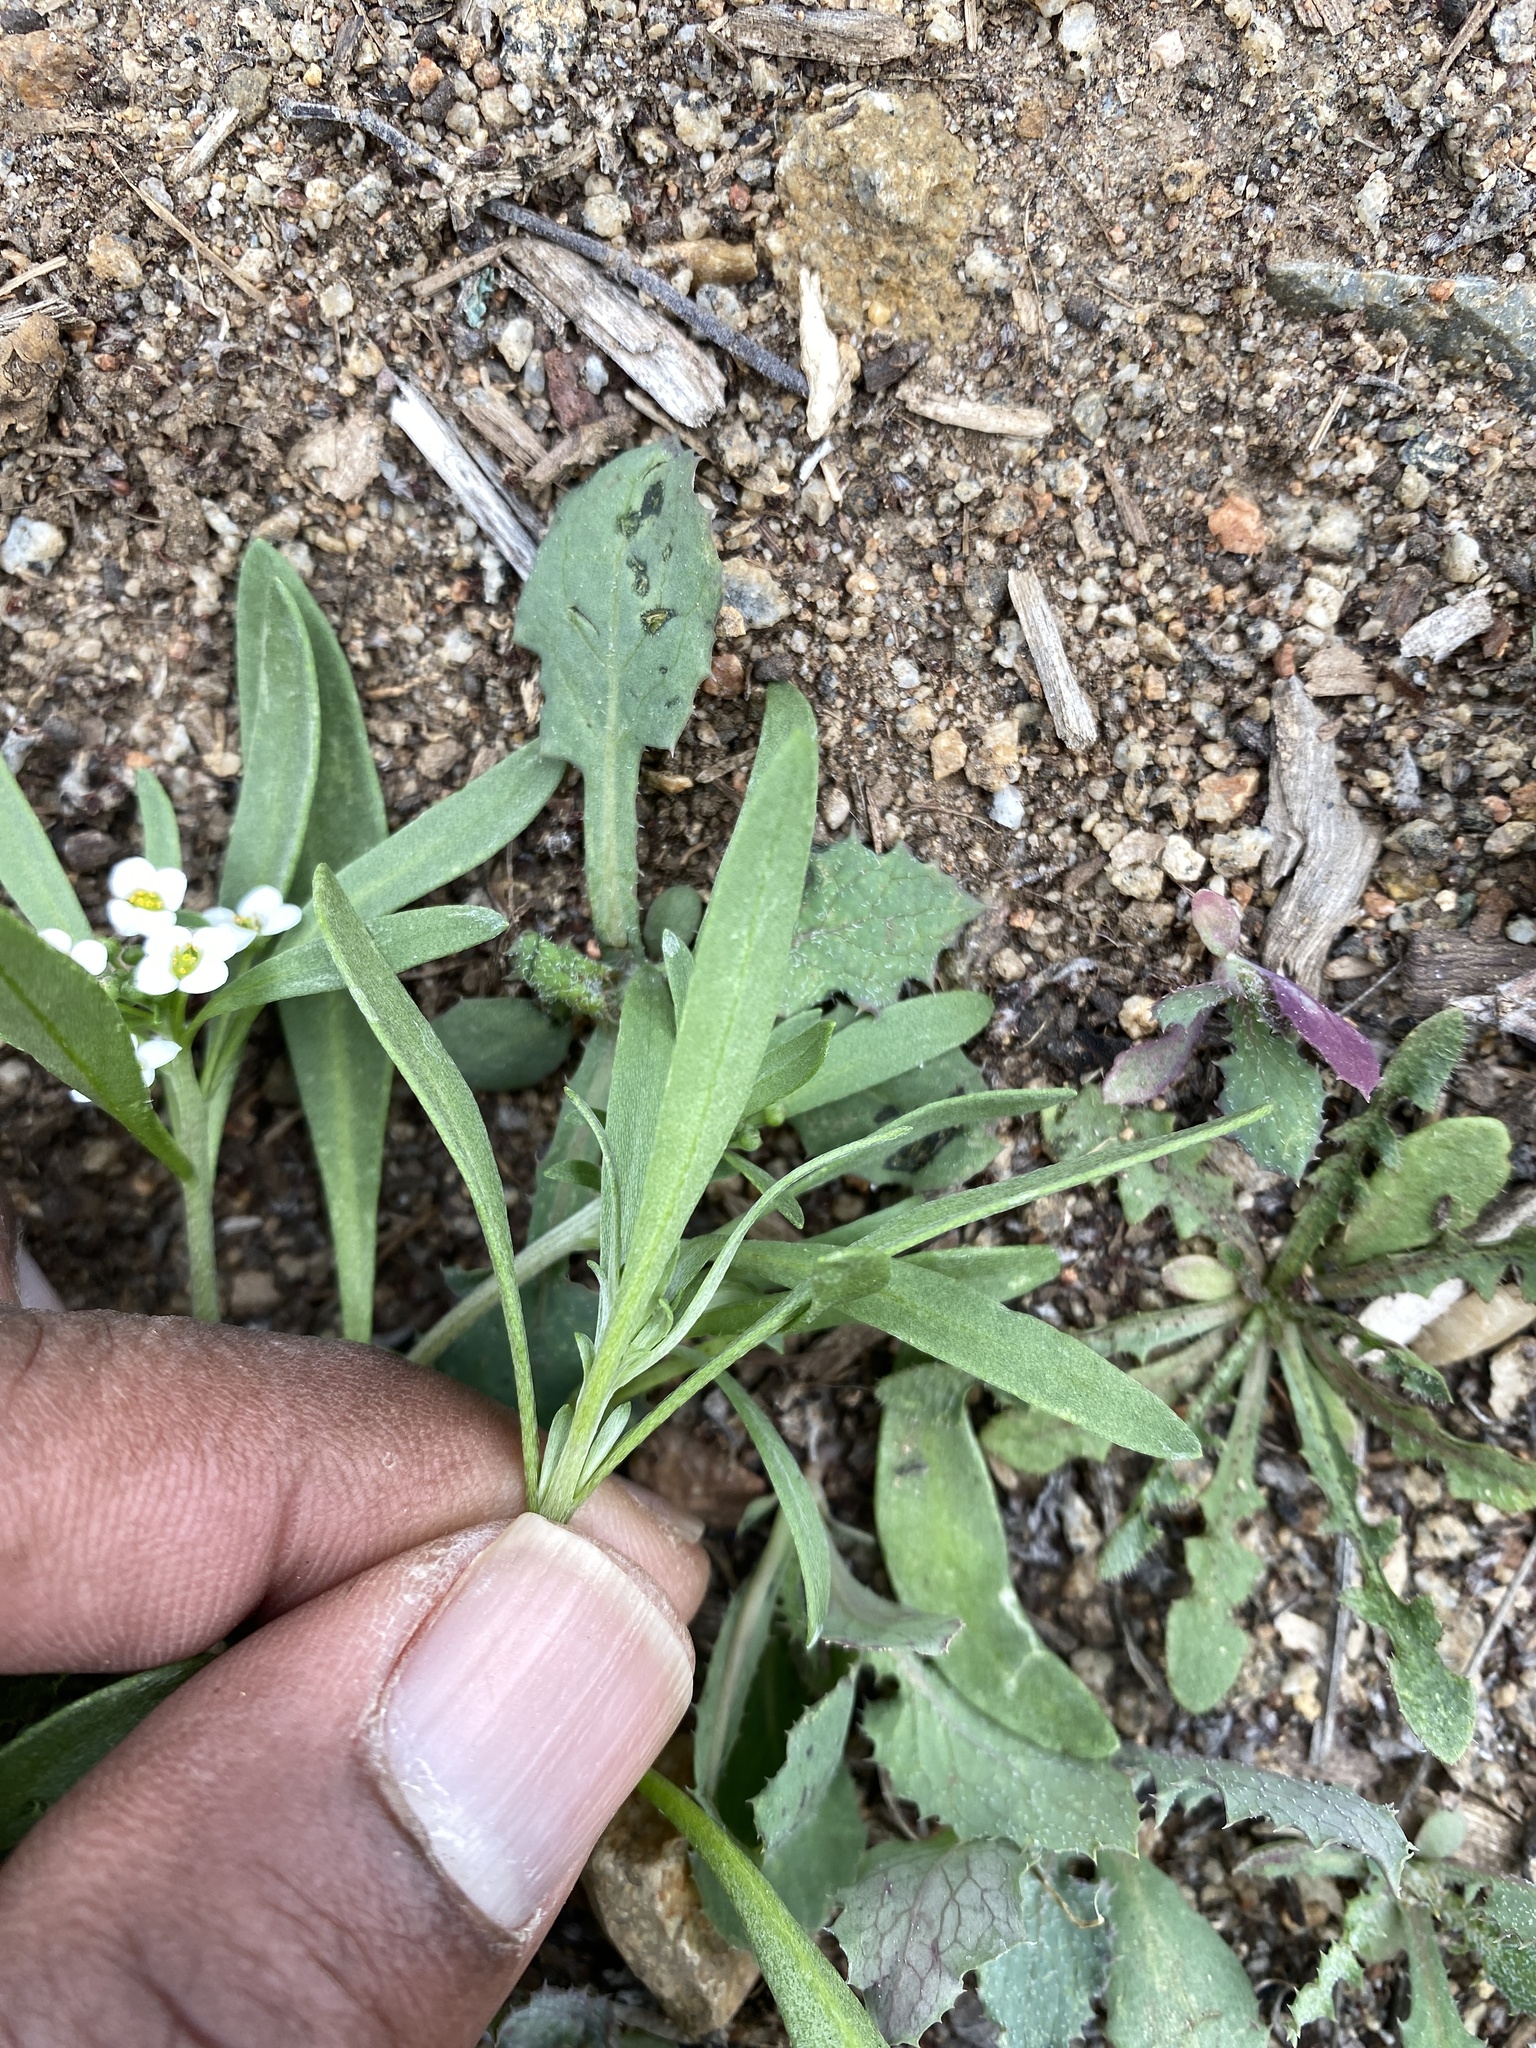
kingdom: Plantae
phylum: Tracheophyta
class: Magnoliopsida
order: Brassicales
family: Brassicaceae
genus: Lobularia
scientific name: Lobularia maritima
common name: Sweet alison
